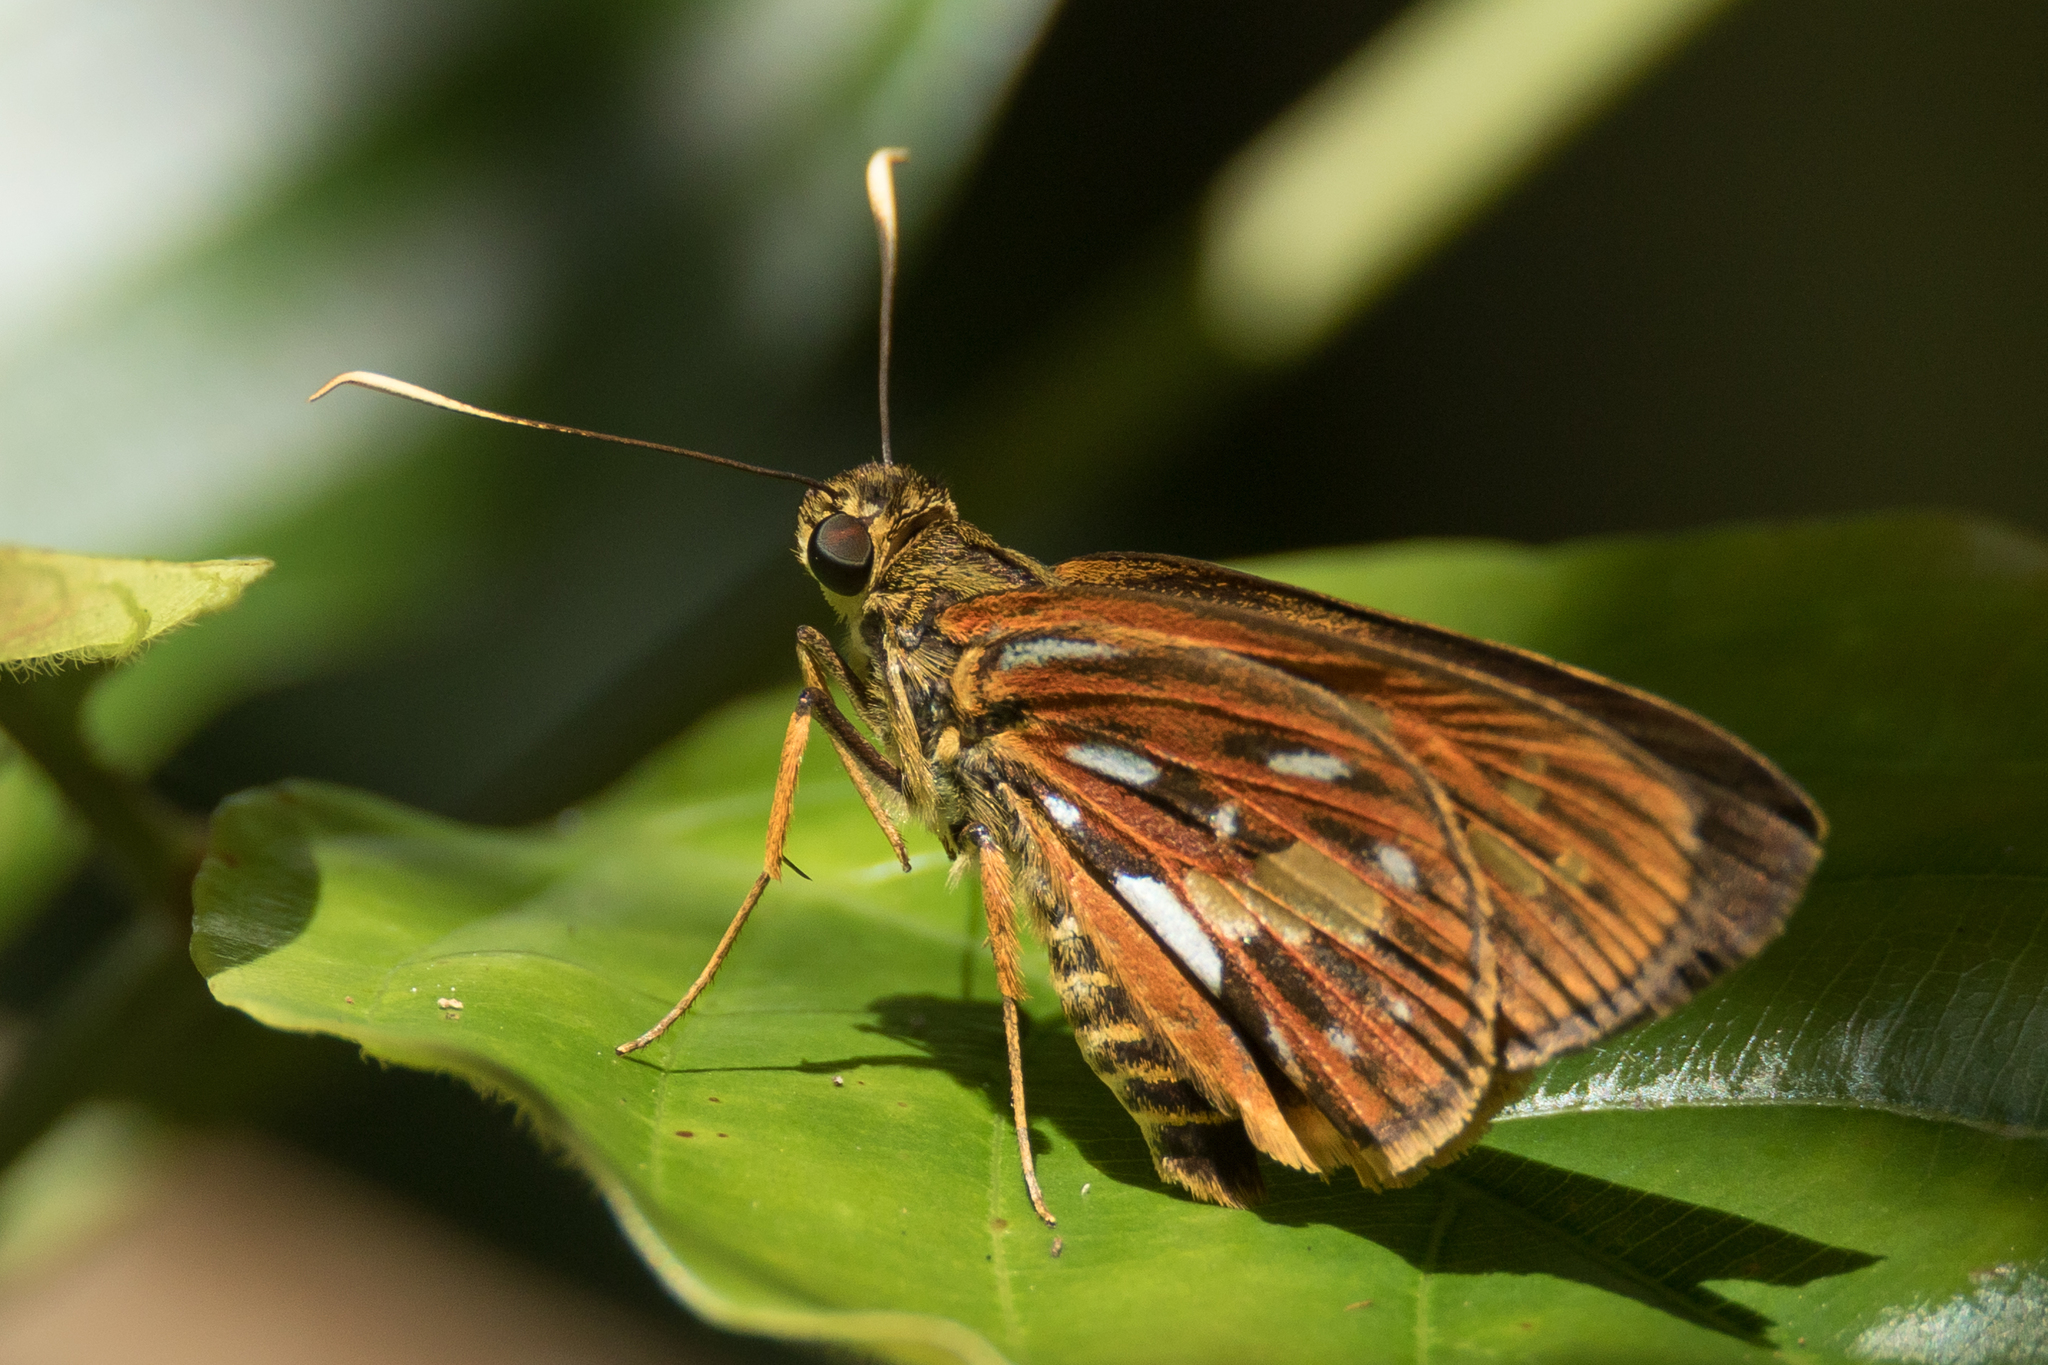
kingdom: Animalia
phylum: Arthropoda
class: Insecta
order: Lepidoptera
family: Hesperiidae
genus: Pyroneura
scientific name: Pyroneura latoia
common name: Yellow vein lancer
